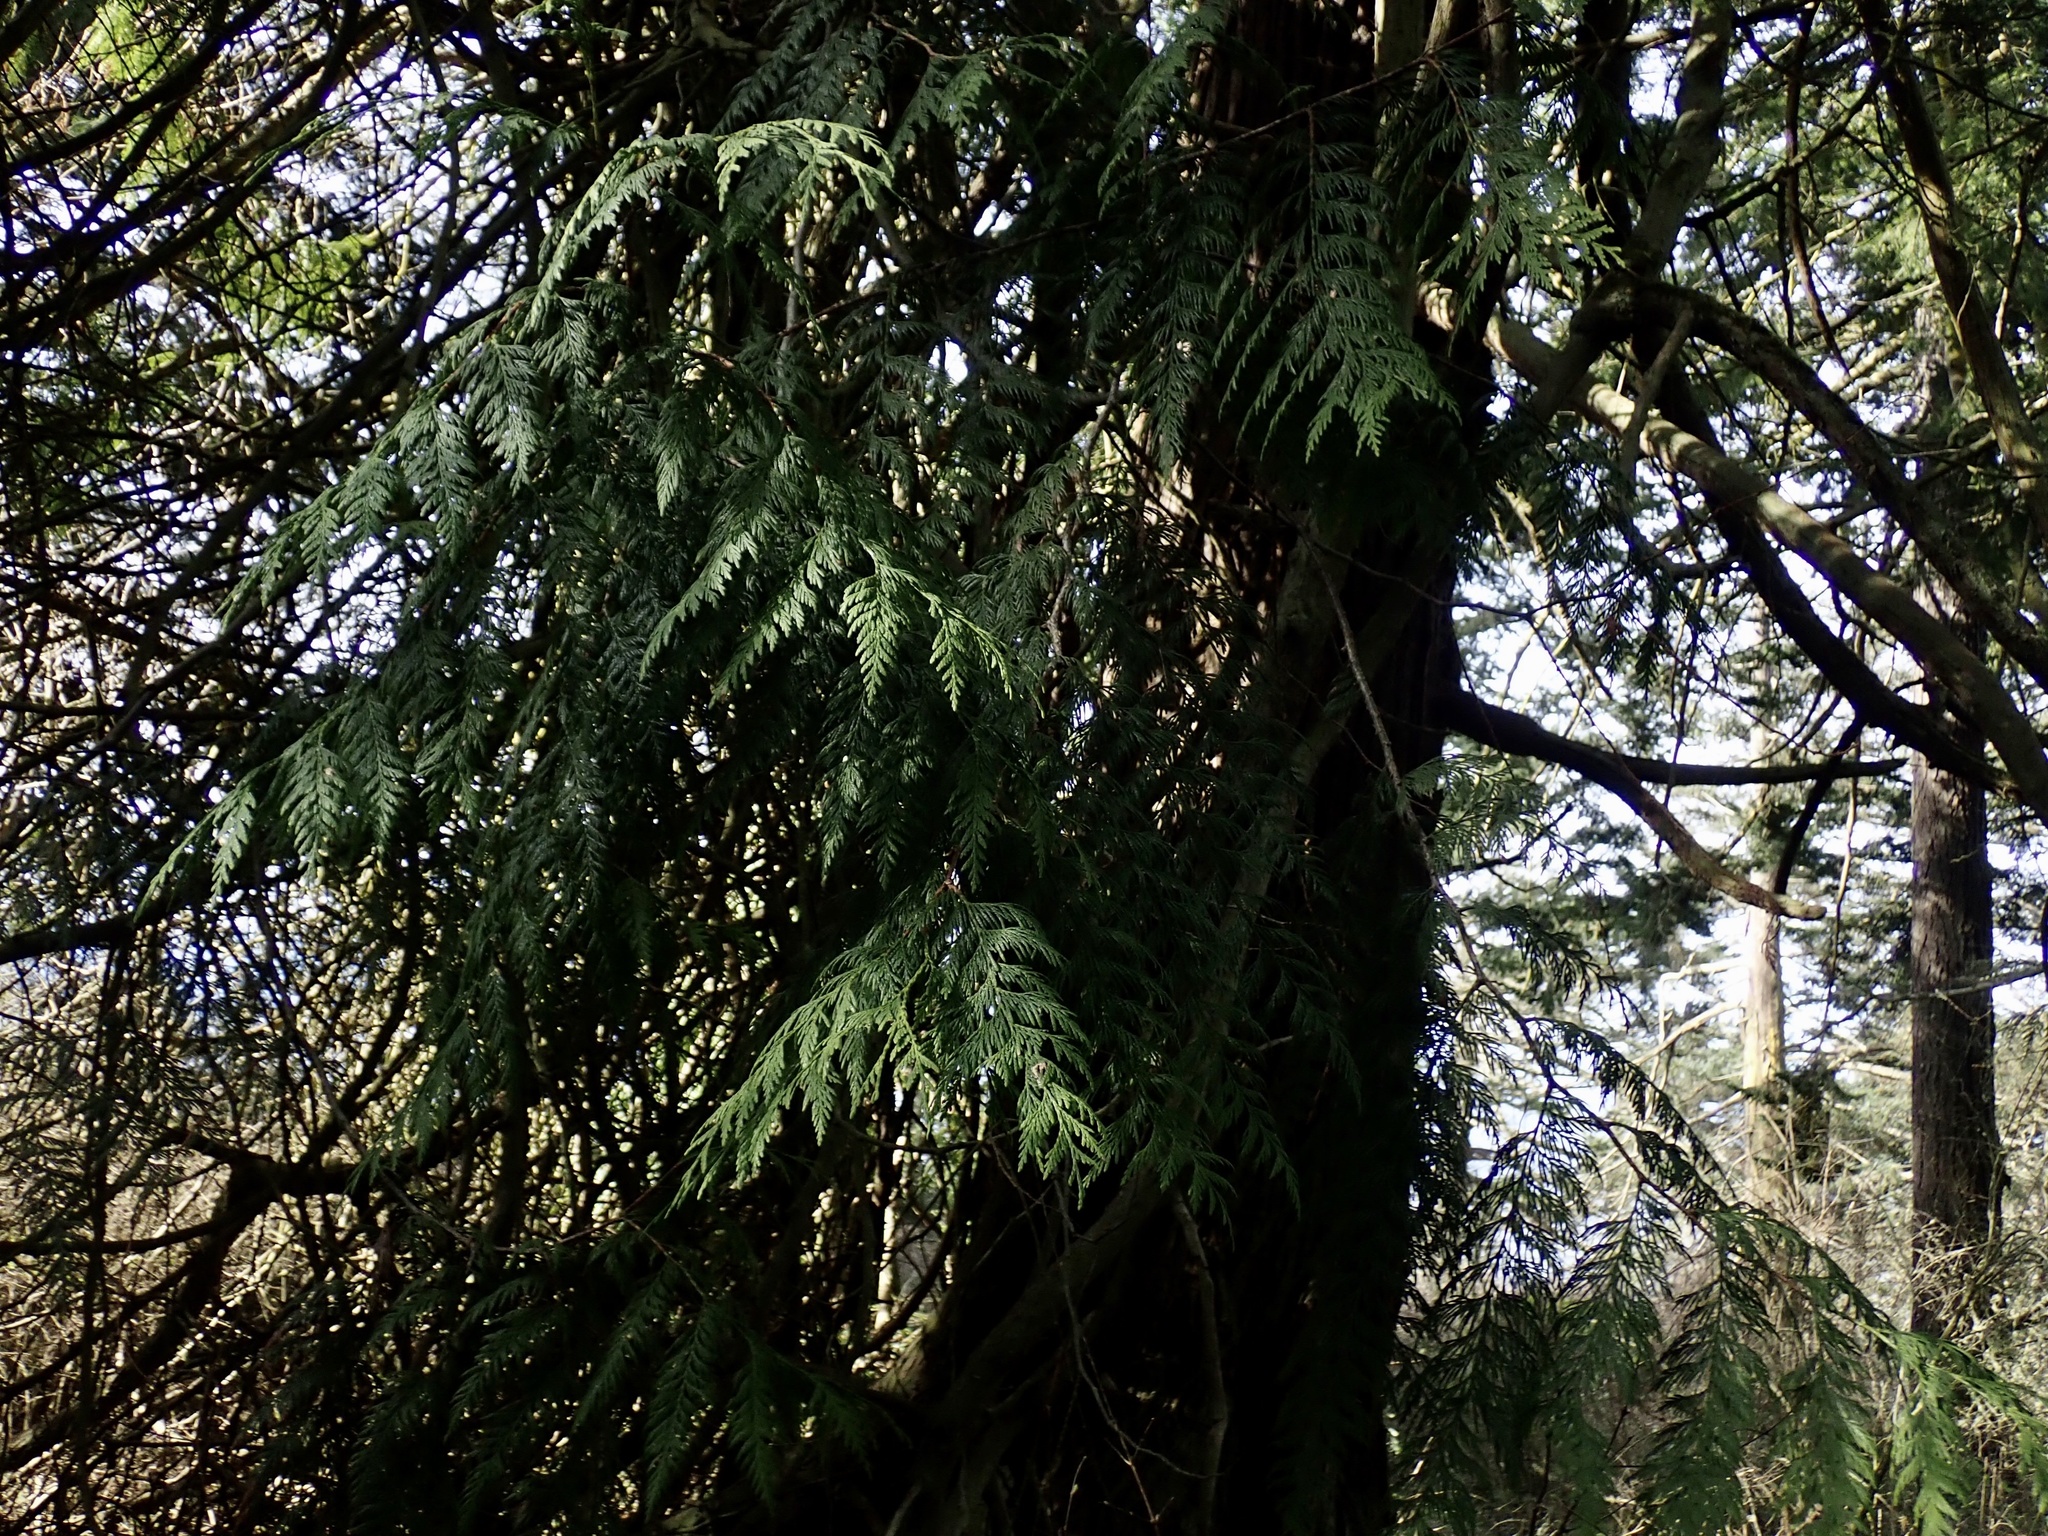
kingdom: Plantae
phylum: Tracheophyta
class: Pinopsida
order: Pinales
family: Cupressaceae
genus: Thuja
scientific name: Thuja plicata
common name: Western red-cedar
